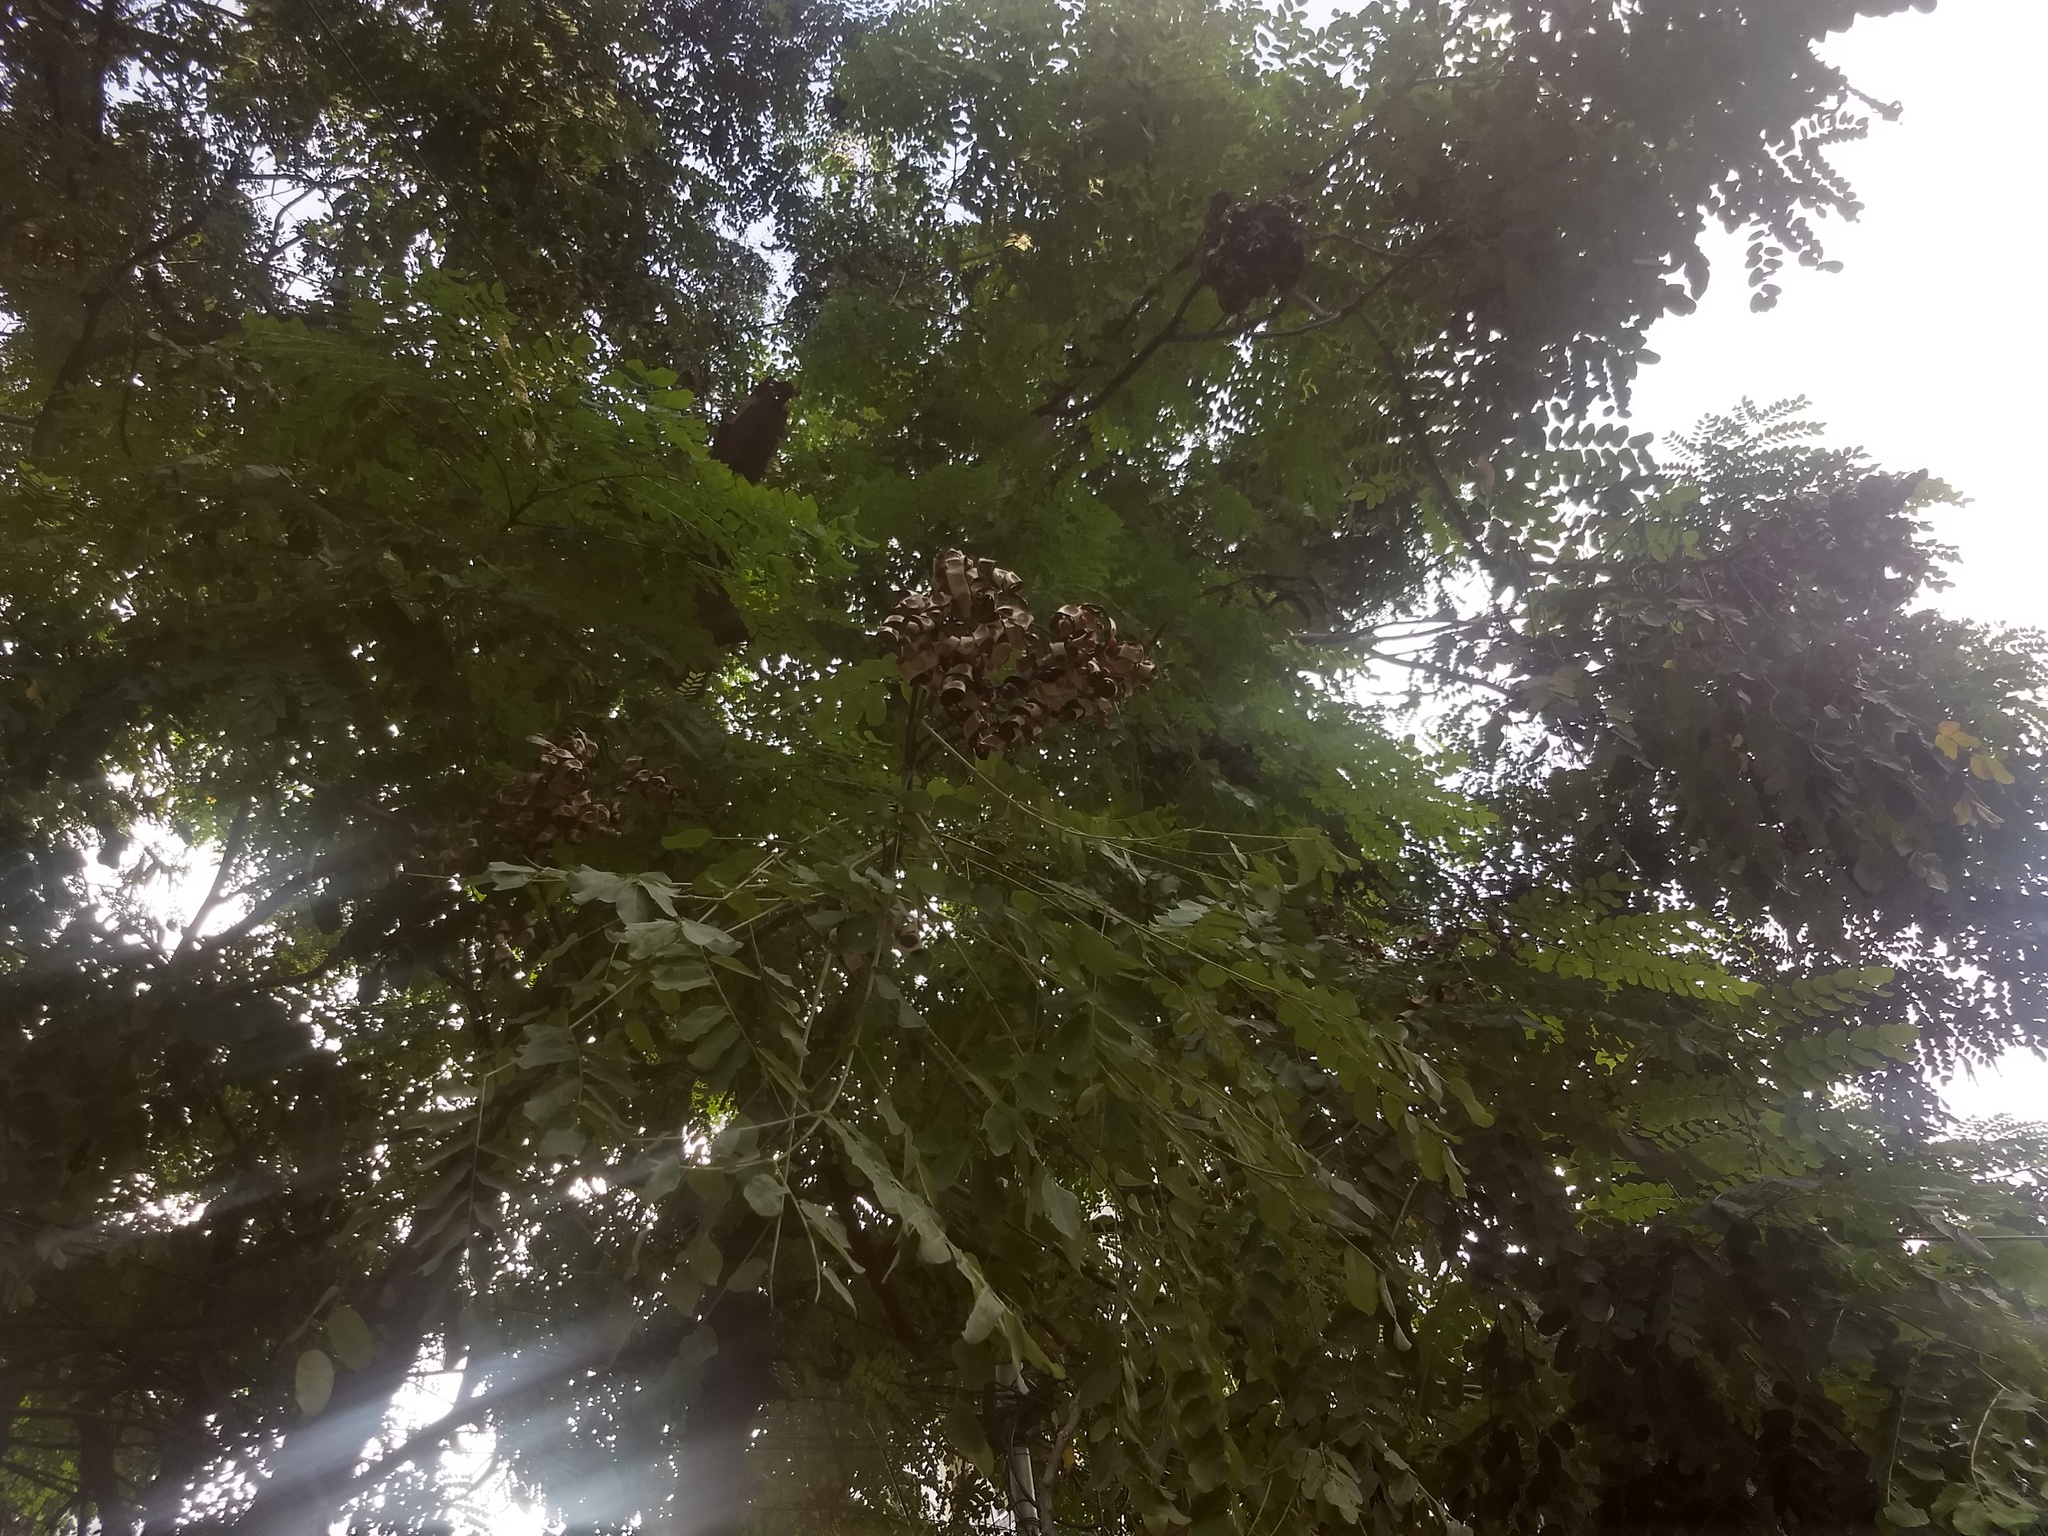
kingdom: Plantae
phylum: Tracheophyta
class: Magnoliopsida
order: Fabales
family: Fabaceae
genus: Adenanthera
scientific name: Adenanthera pavonina
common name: Red beadtree
